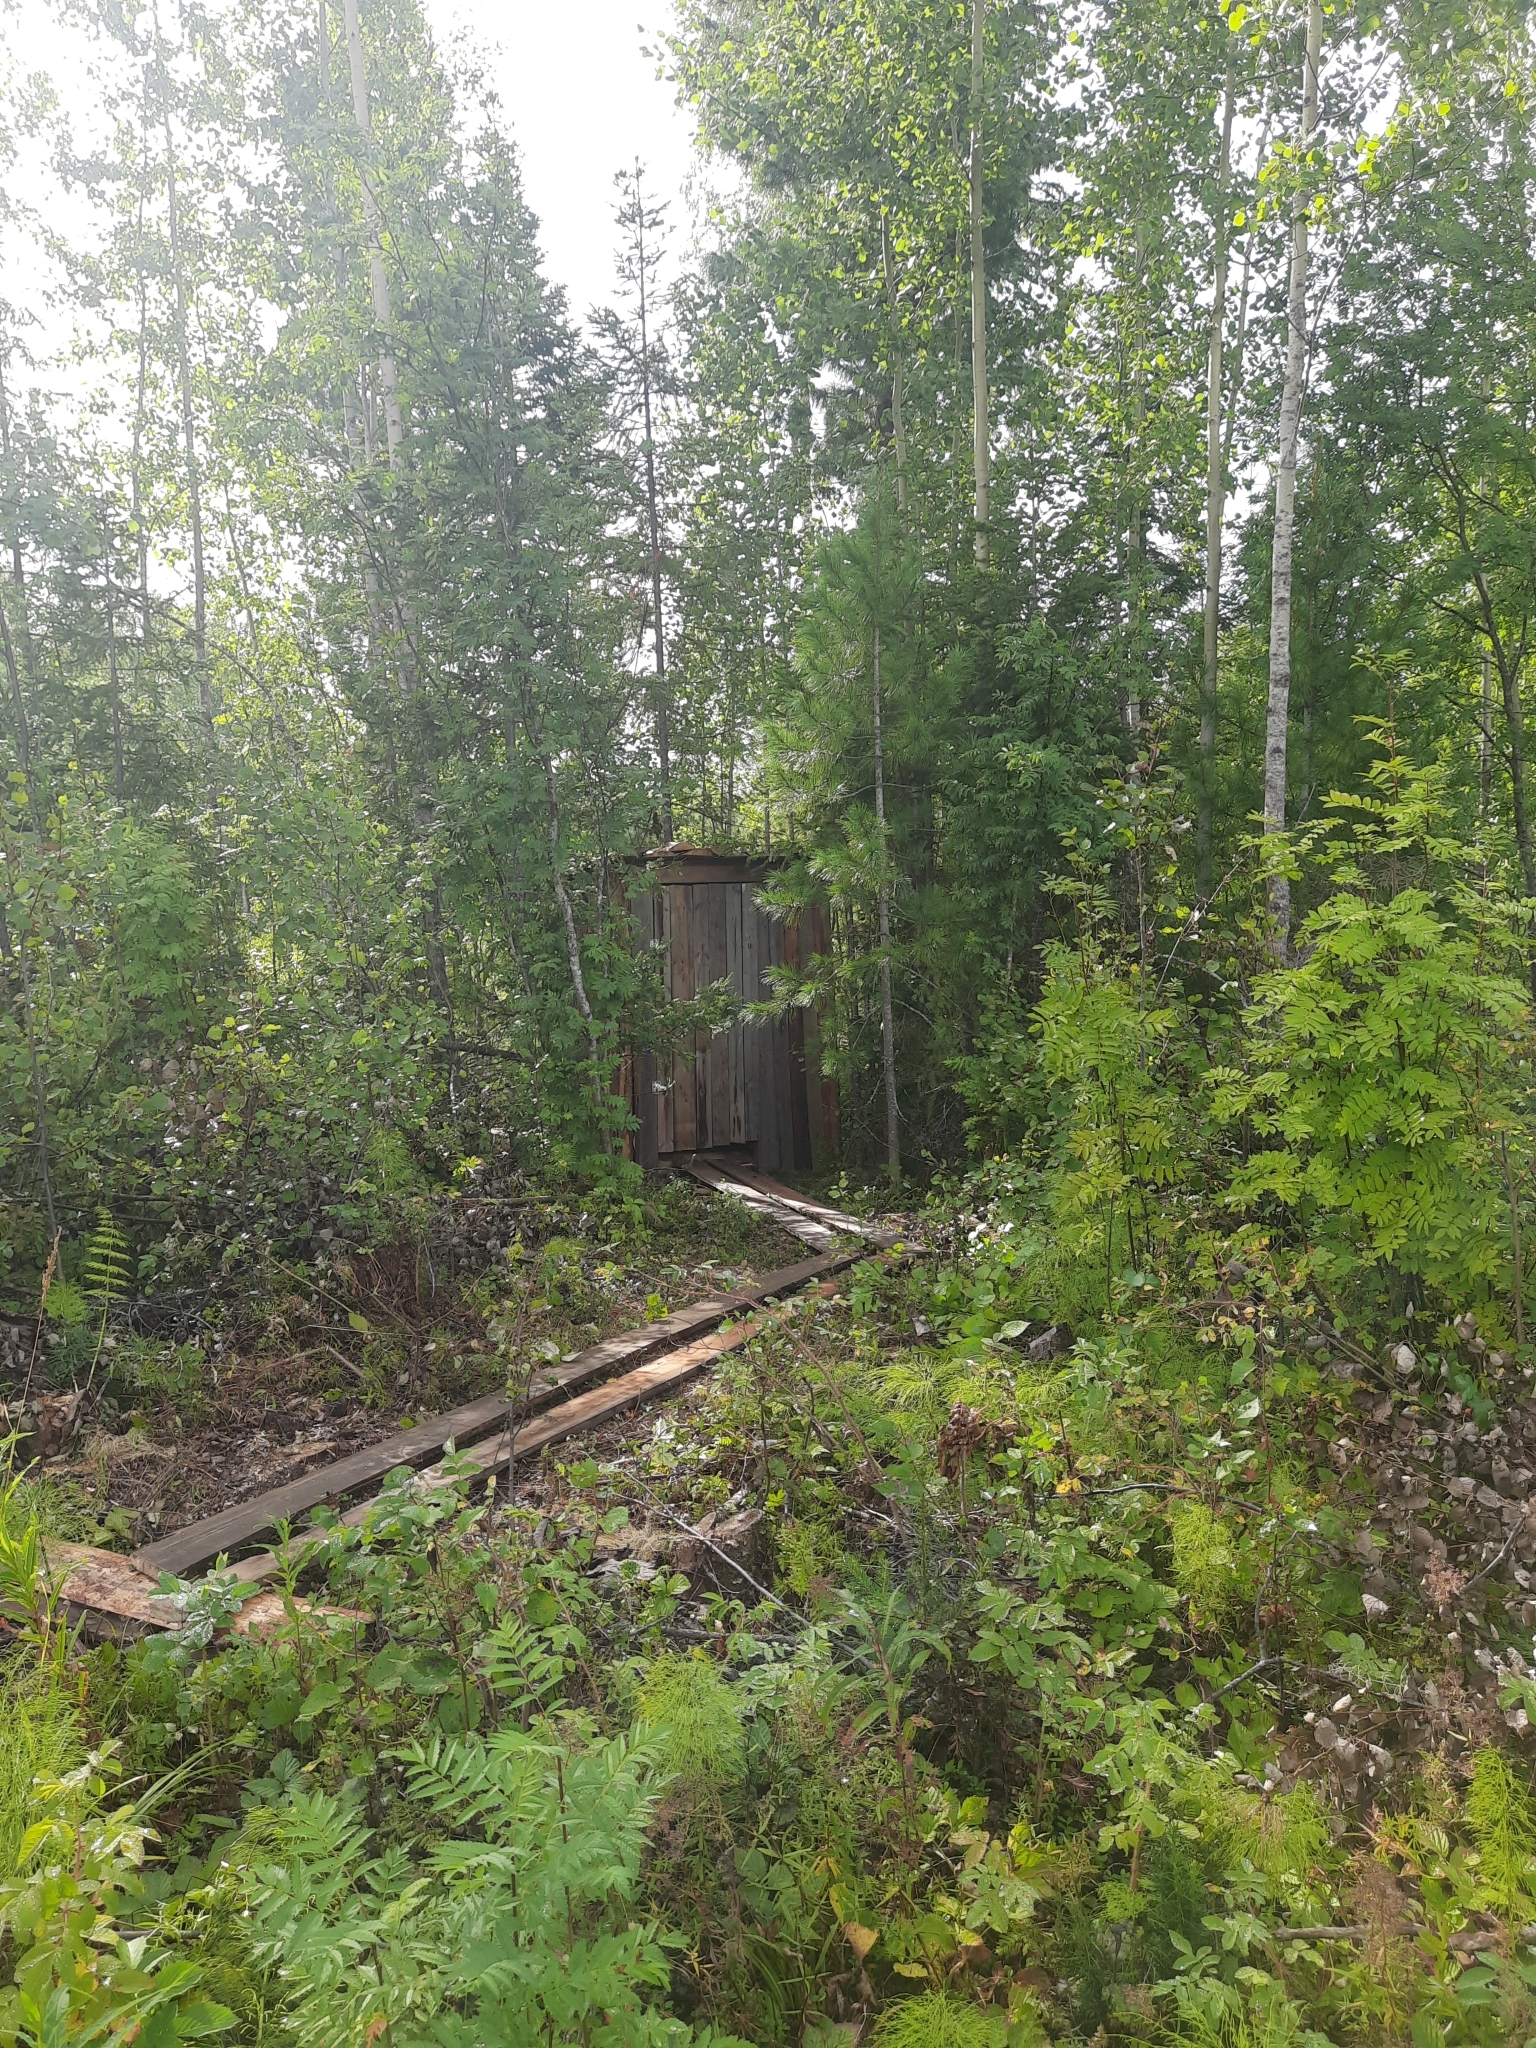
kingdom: Plantae
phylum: Tracheophyta
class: Magnoliopsida
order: Fagales
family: Betulaceae
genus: Betula
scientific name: Betula pendula
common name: Silver birch
